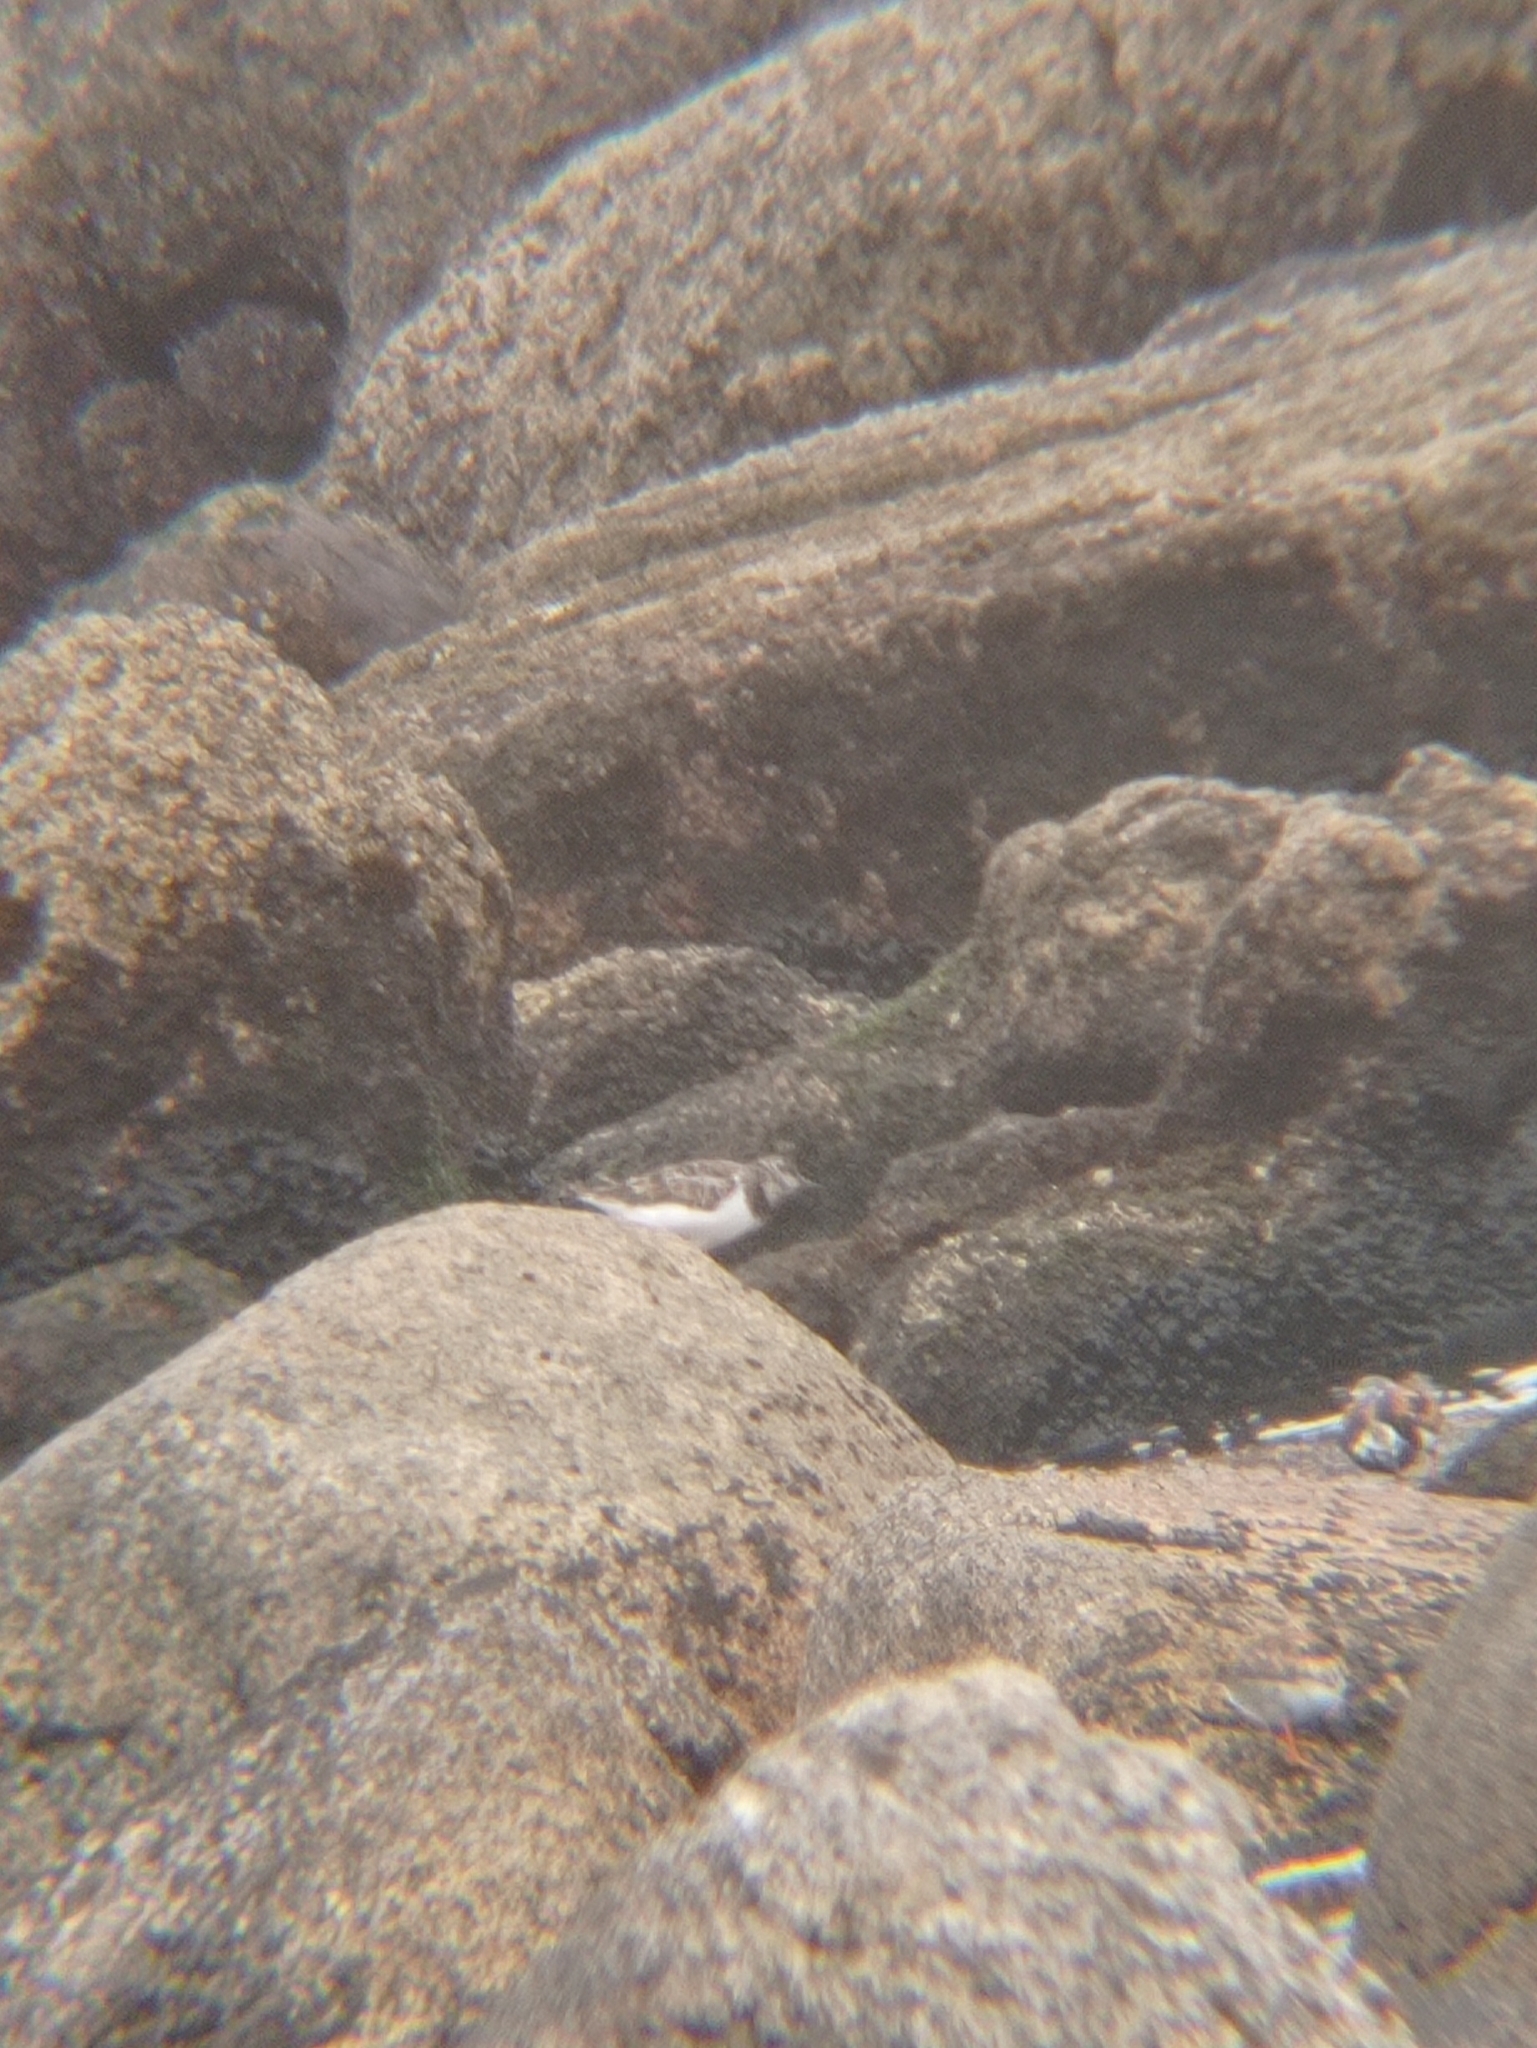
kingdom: Animalia
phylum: Chordata
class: Aves
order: Charadriiformes
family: Scolopacidae
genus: Arenaria
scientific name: Arenaria interpres
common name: Ruddy turnstone
